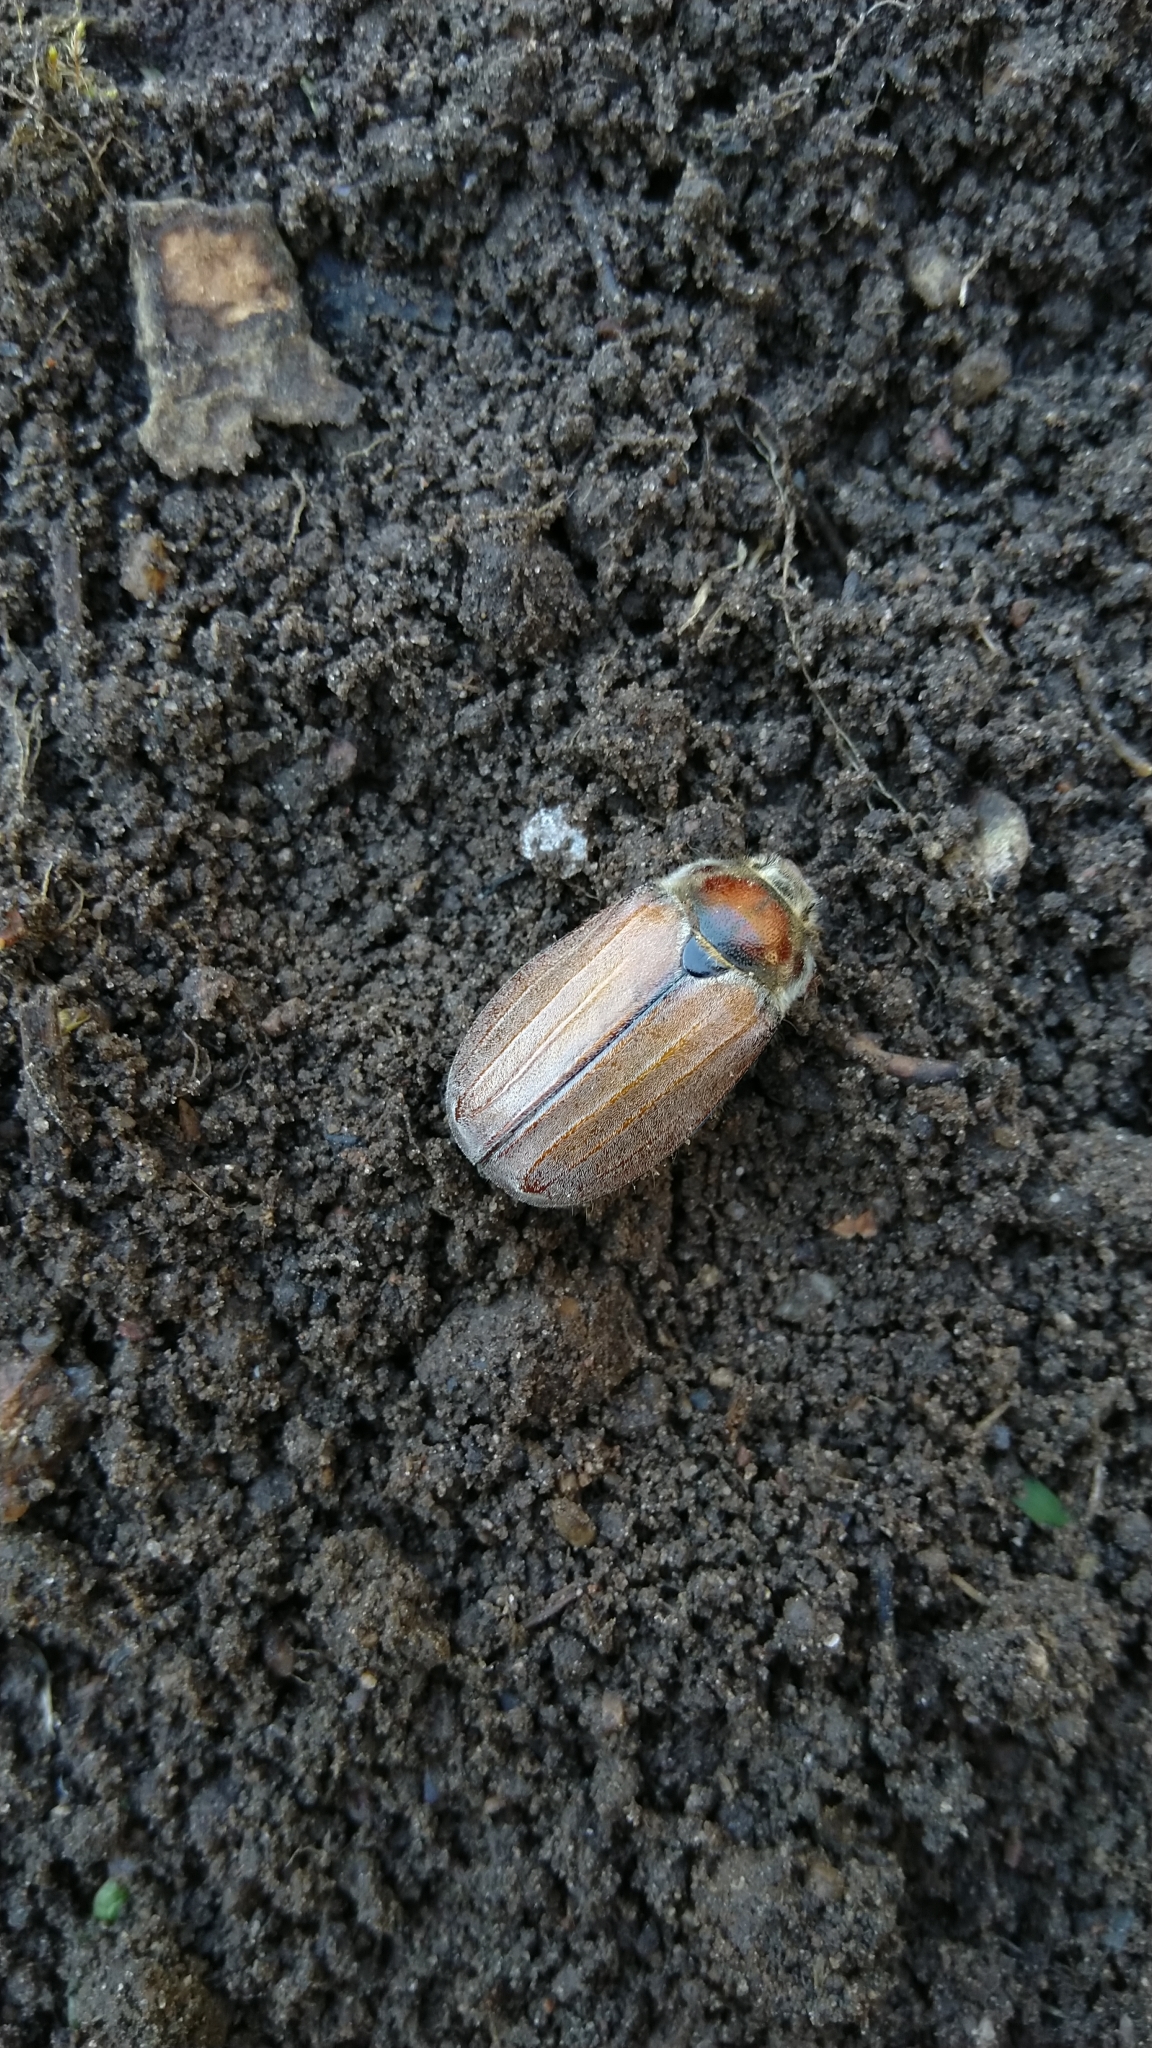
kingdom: Animalia
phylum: Arthropoda
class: Insecta
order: Coleoptera
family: Scarabaeidae
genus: Melolontha
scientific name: Melolontha hippocastani
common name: Chestnut cockchafer
